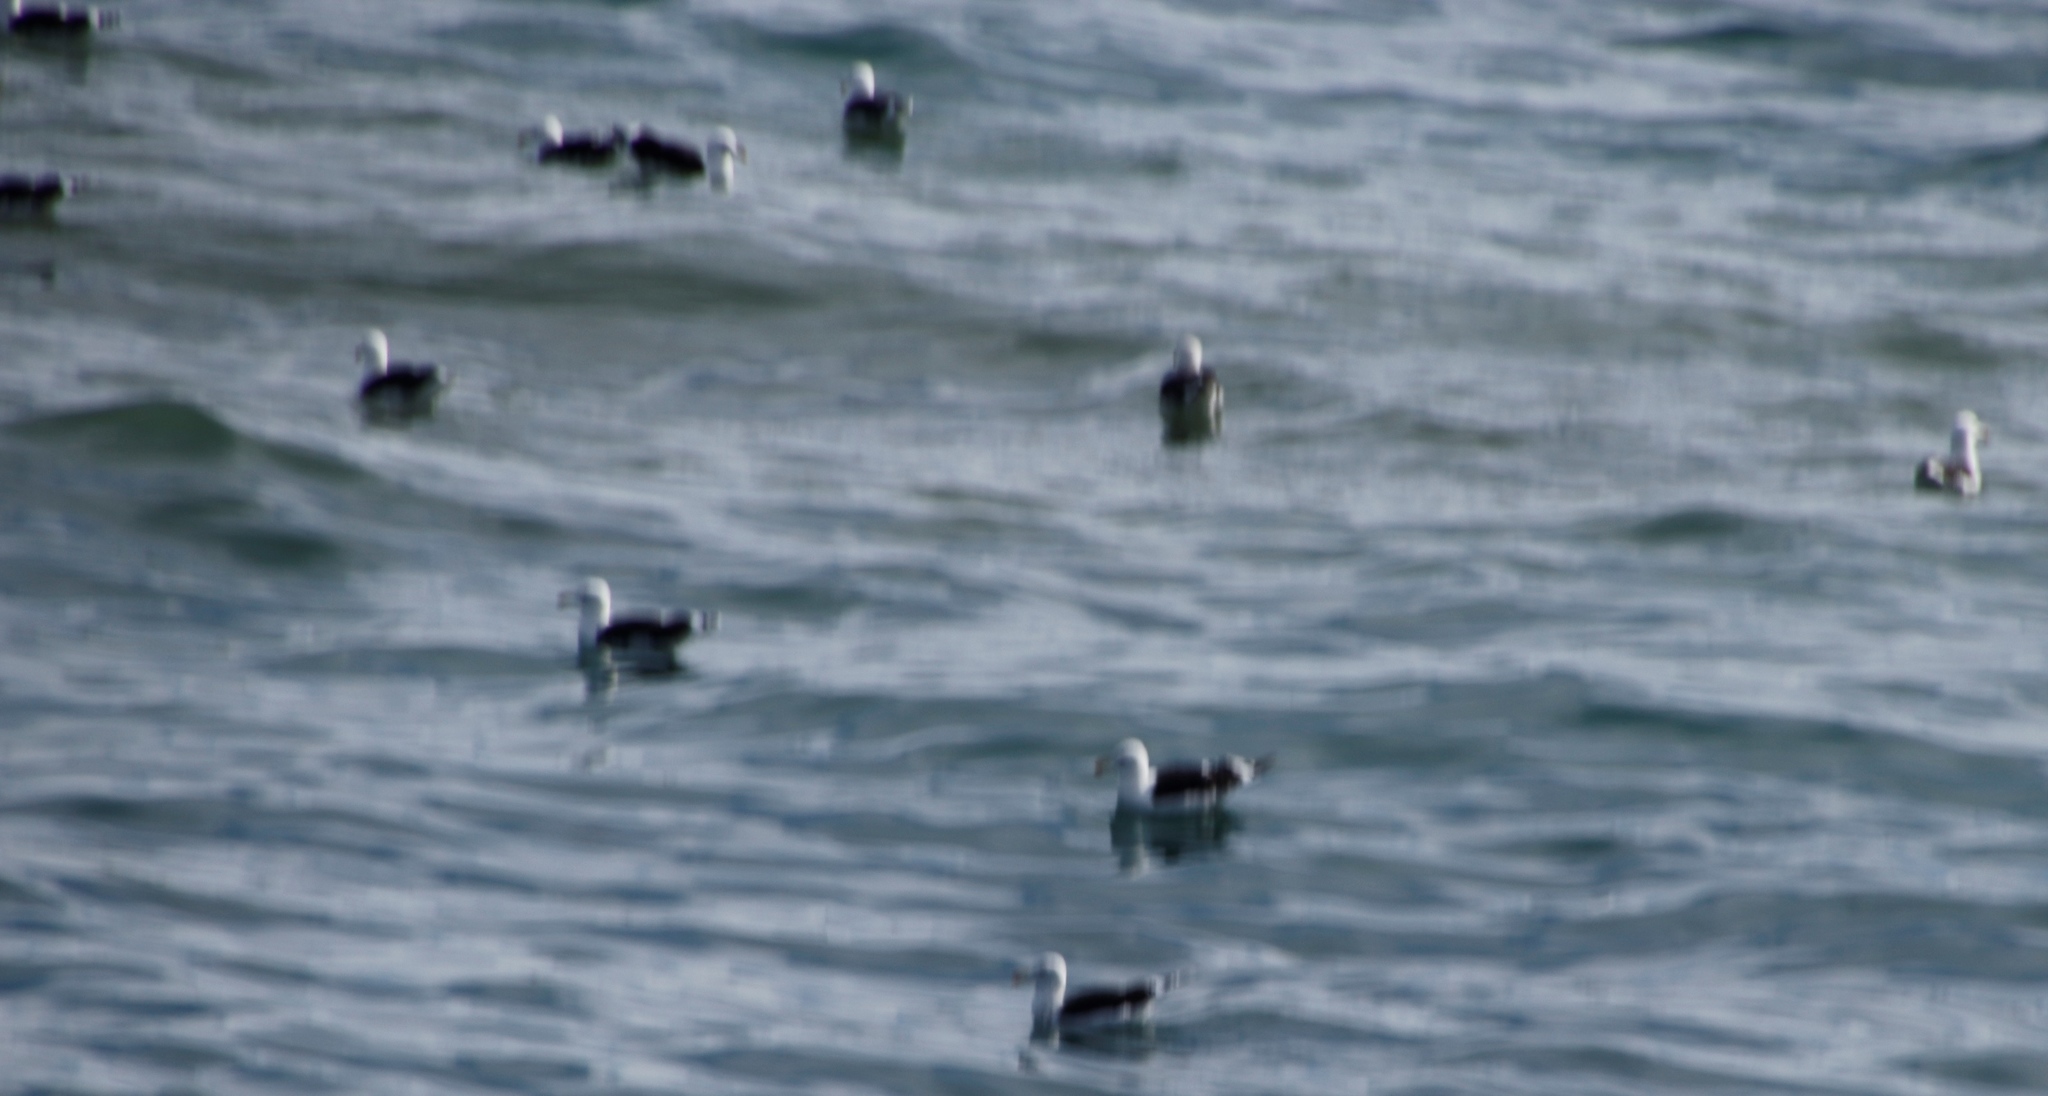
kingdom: Animalia
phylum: Chordata
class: Aves
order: Charadriiformes
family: Laridae
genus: Larus
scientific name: Larus dominicanus
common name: Kelp gull
